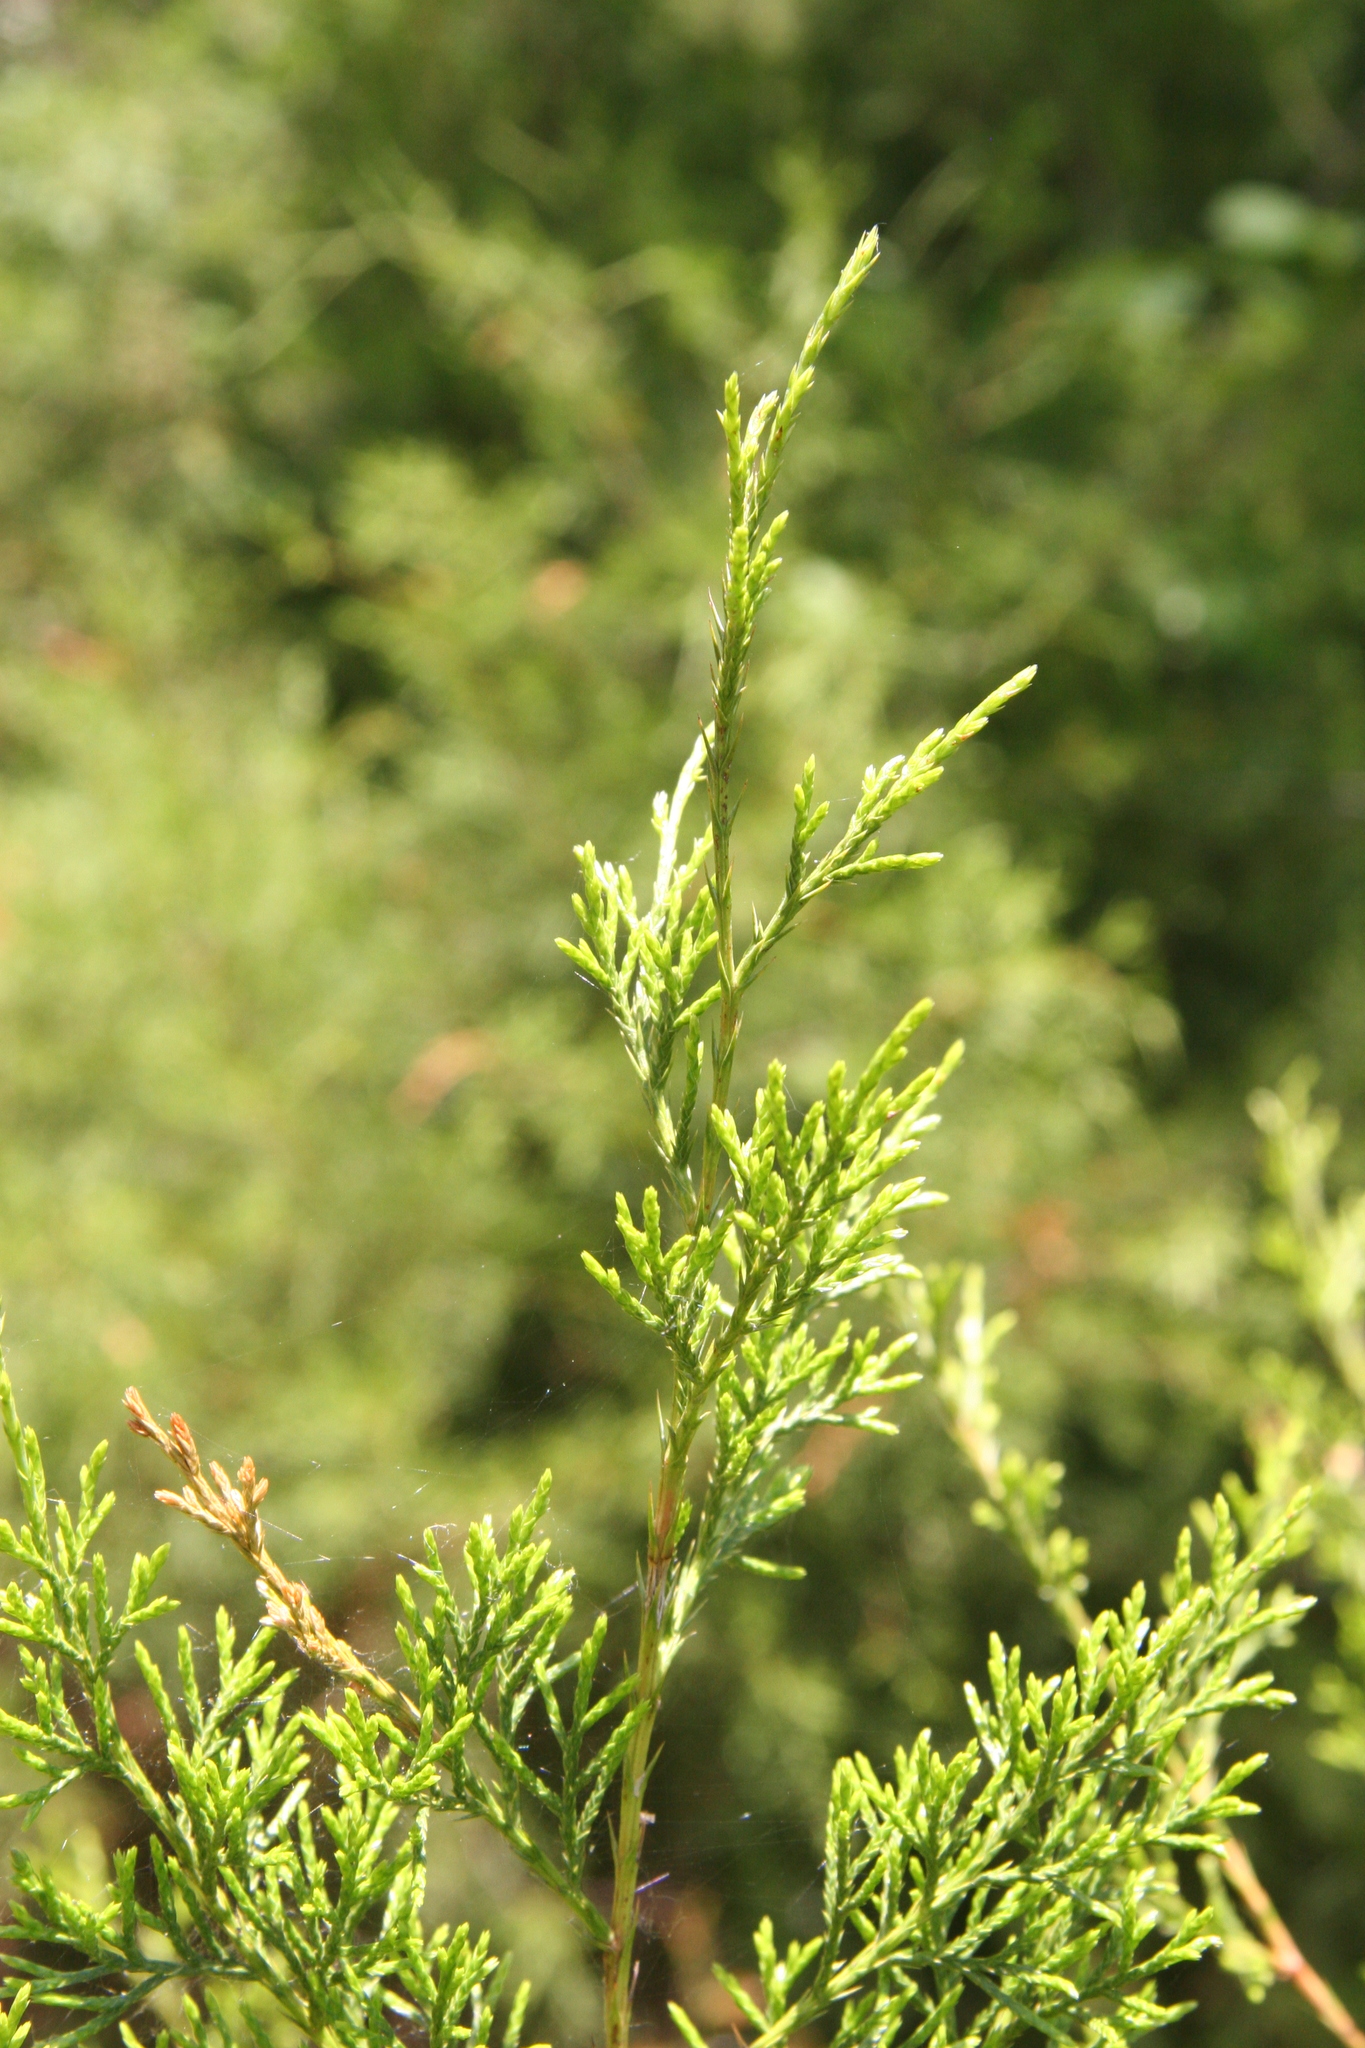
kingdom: Plantae
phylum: Tracheophyta
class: Pinopsida
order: Pinales
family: Cupressaceae
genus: Juniperus
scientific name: Juniperus virginiana
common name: Red juniper
